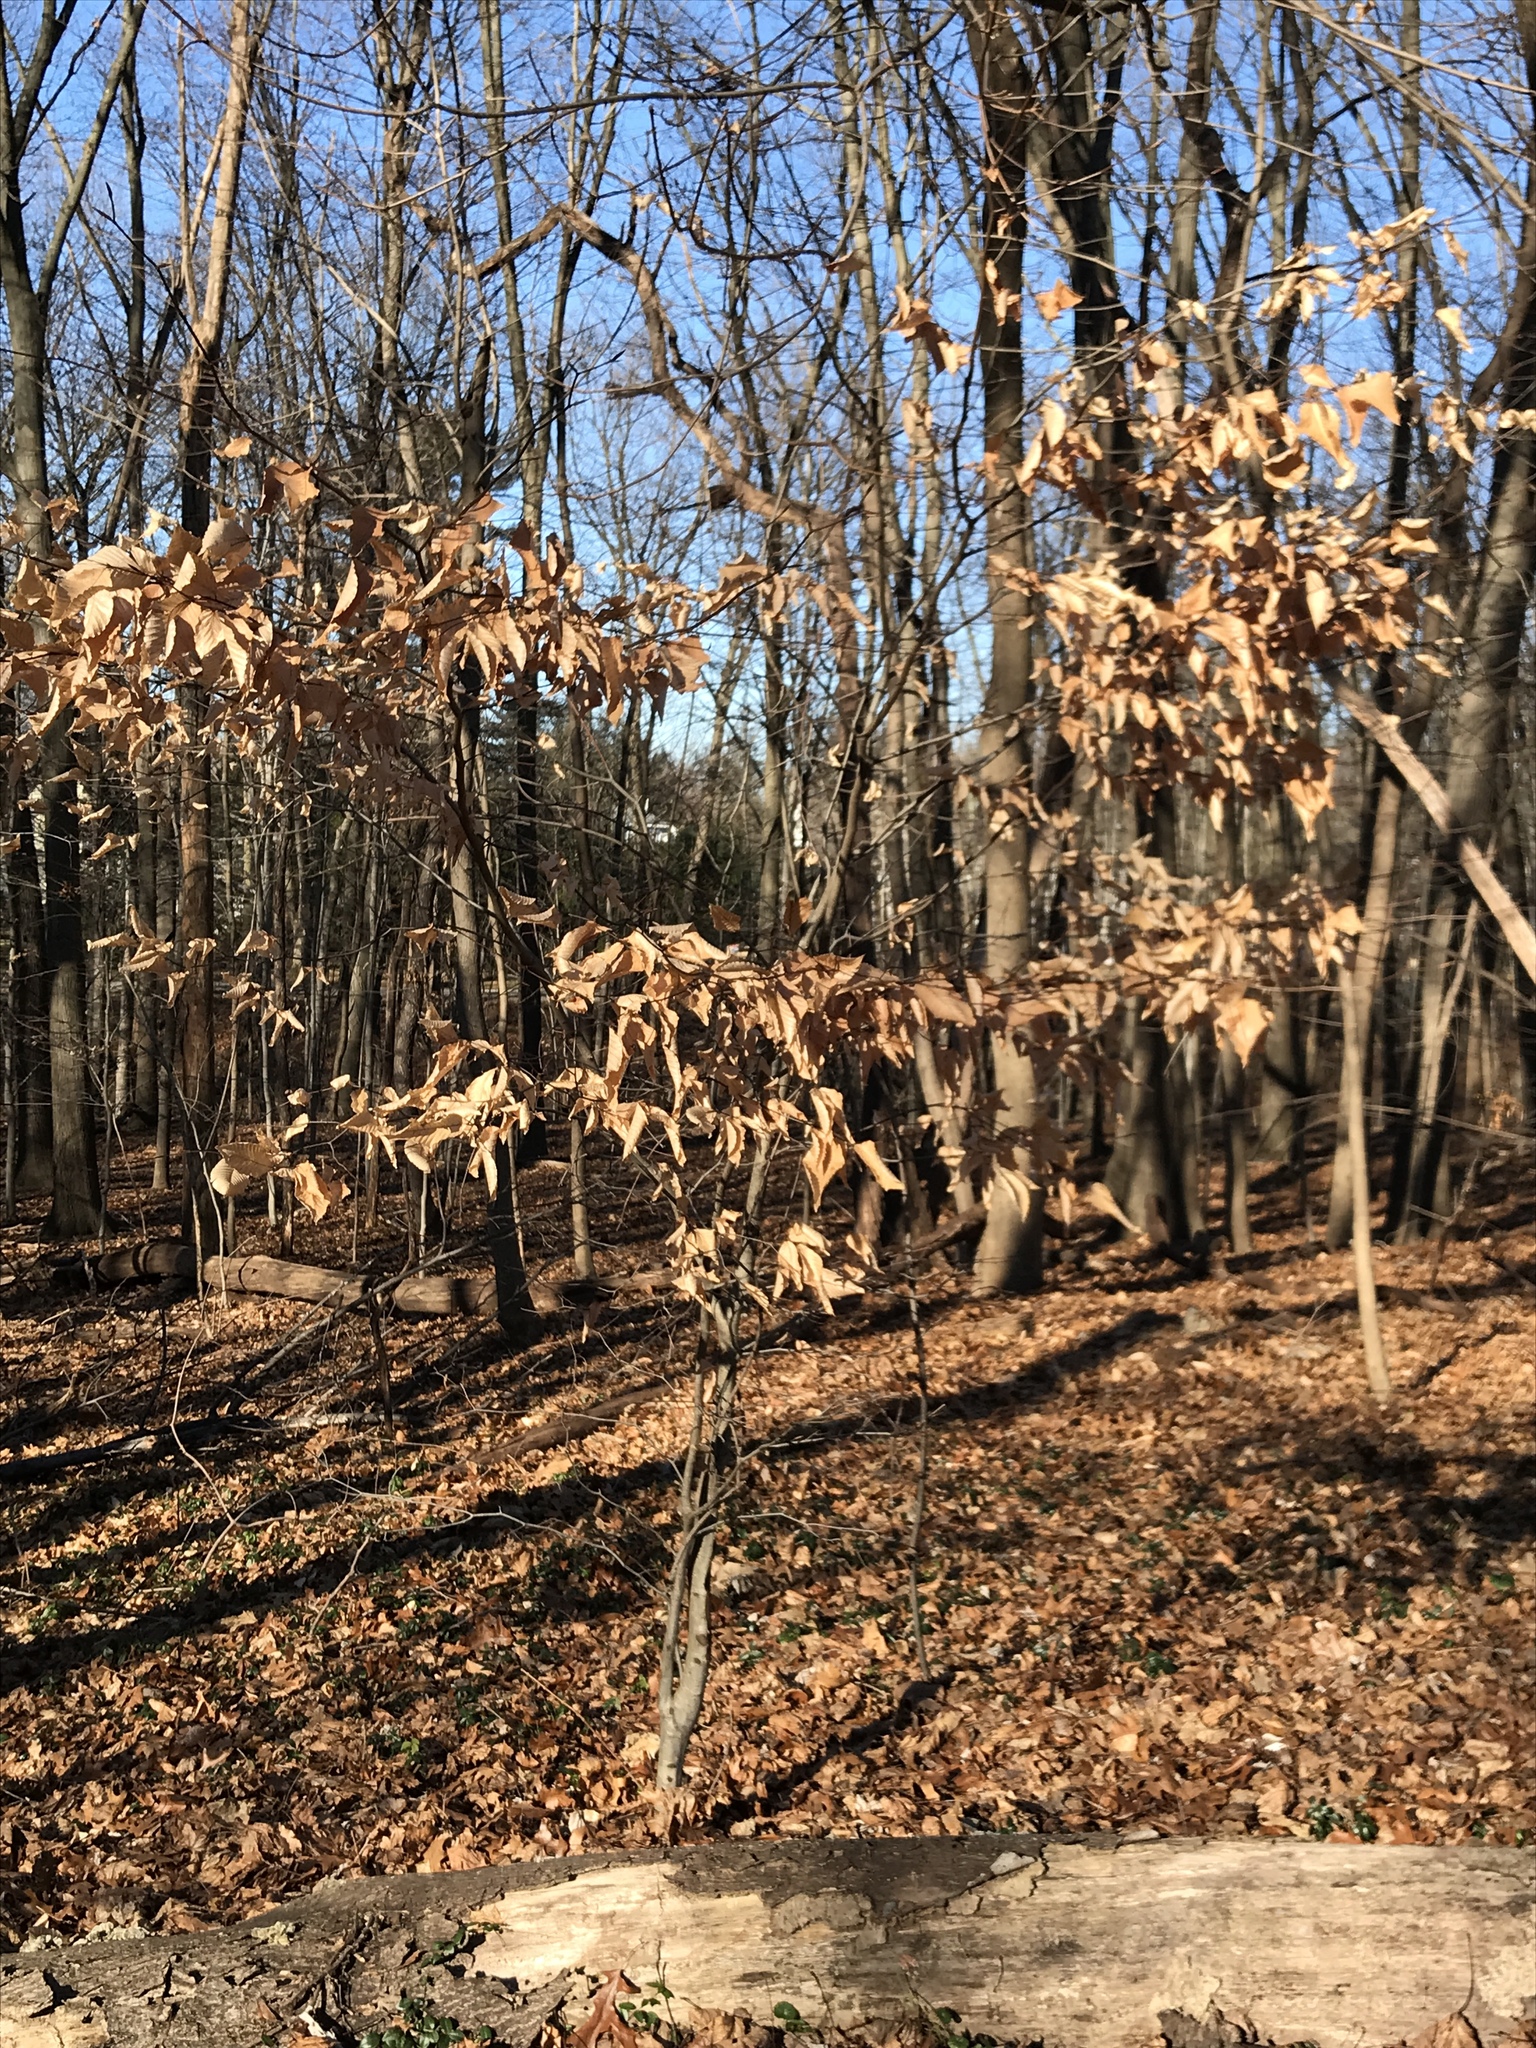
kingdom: Plantae
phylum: Tracheophyta
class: Magnoliopsida
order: Fagales
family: Fagaceae
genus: Fagus
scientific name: Fagus grandifolia
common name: American beech
